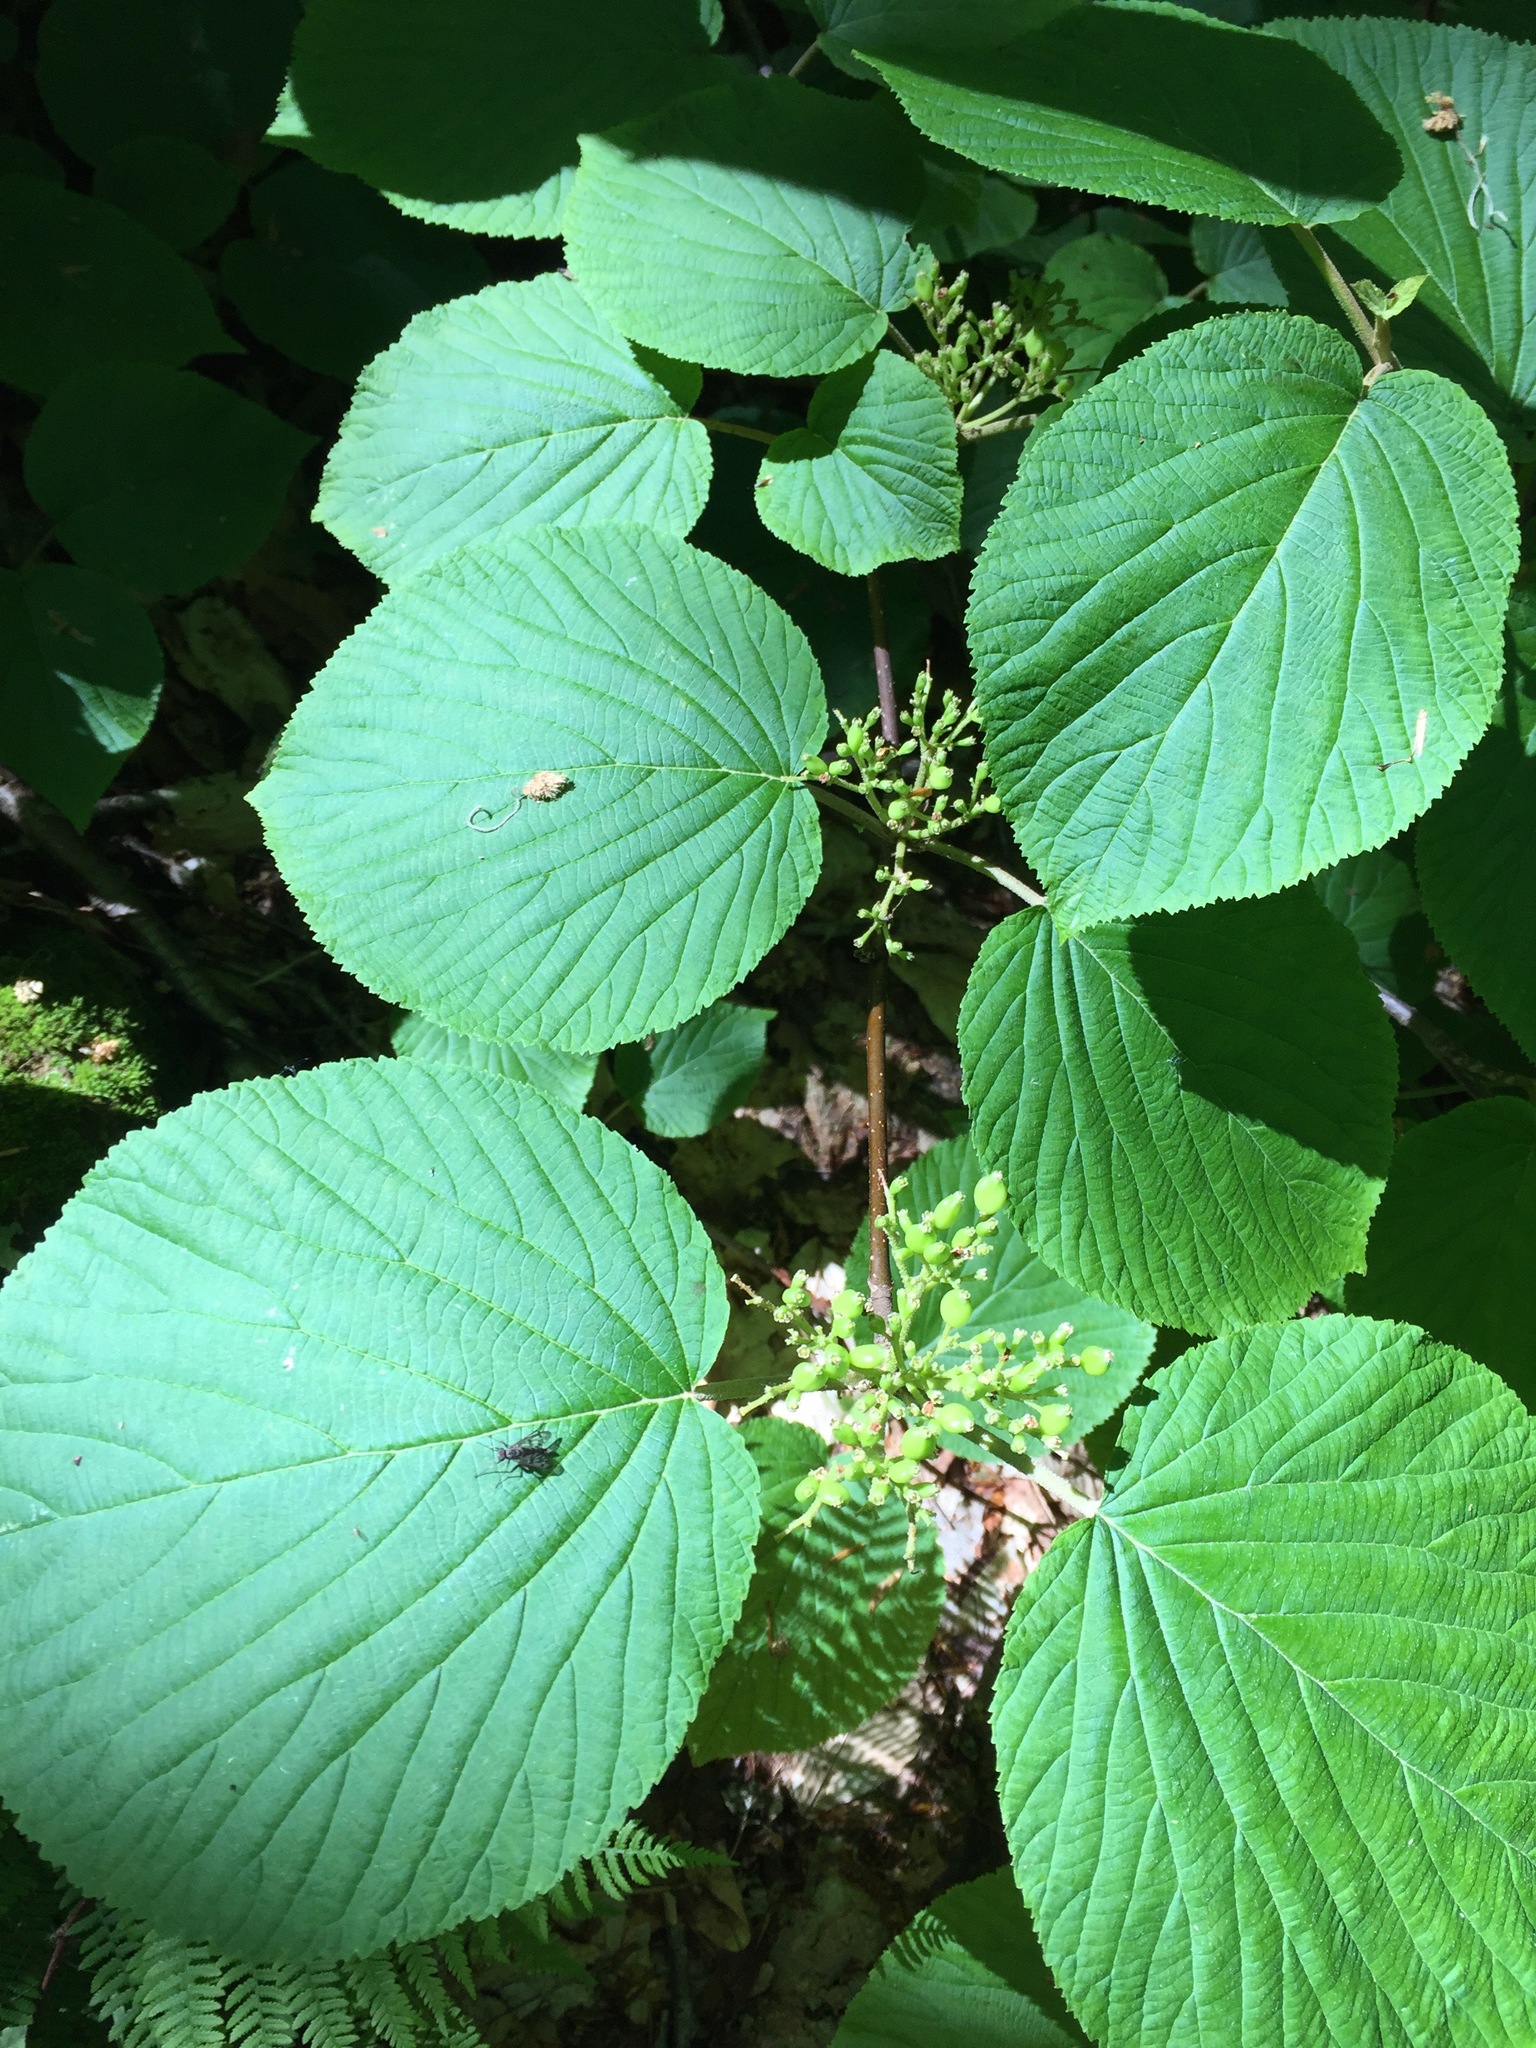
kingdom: Plantae
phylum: Tracheophyta
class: Magnoliopsida
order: Dipsacales
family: Viburnaceae
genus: Viburnum
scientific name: Viburnum lantanoides
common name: Hobblebush
